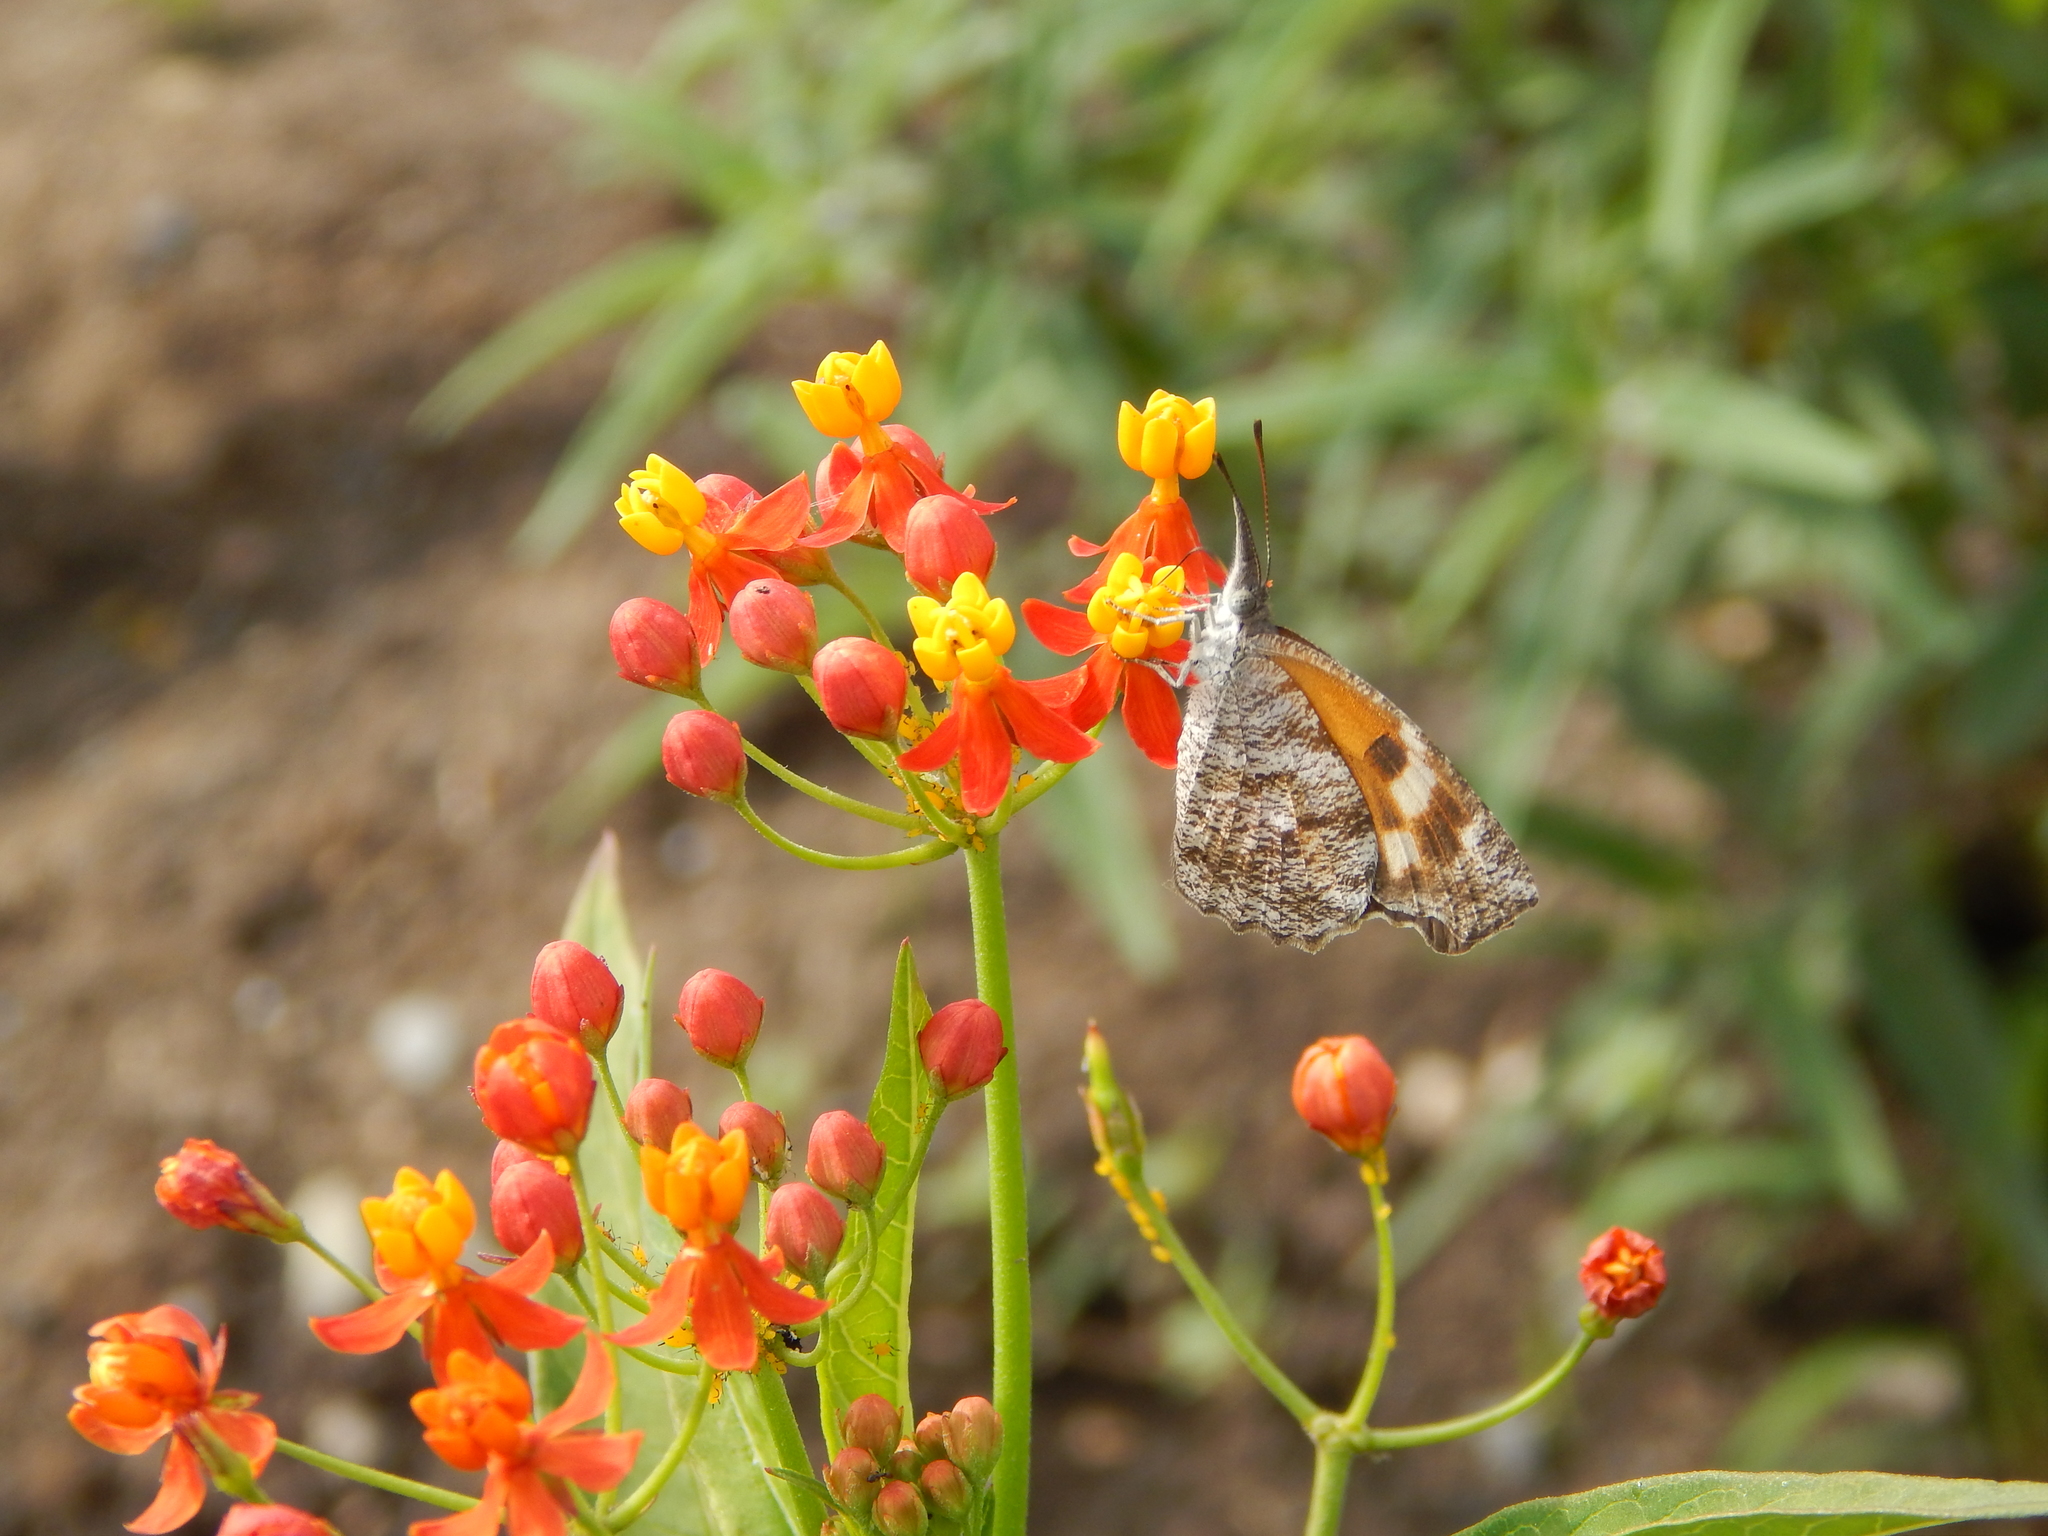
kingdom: Animalia
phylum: Arthropoda
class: Insecta
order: Lepidoptera
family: Nymphalidae
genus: Libytheana
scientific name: Libytheana carinenta
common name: American snout
